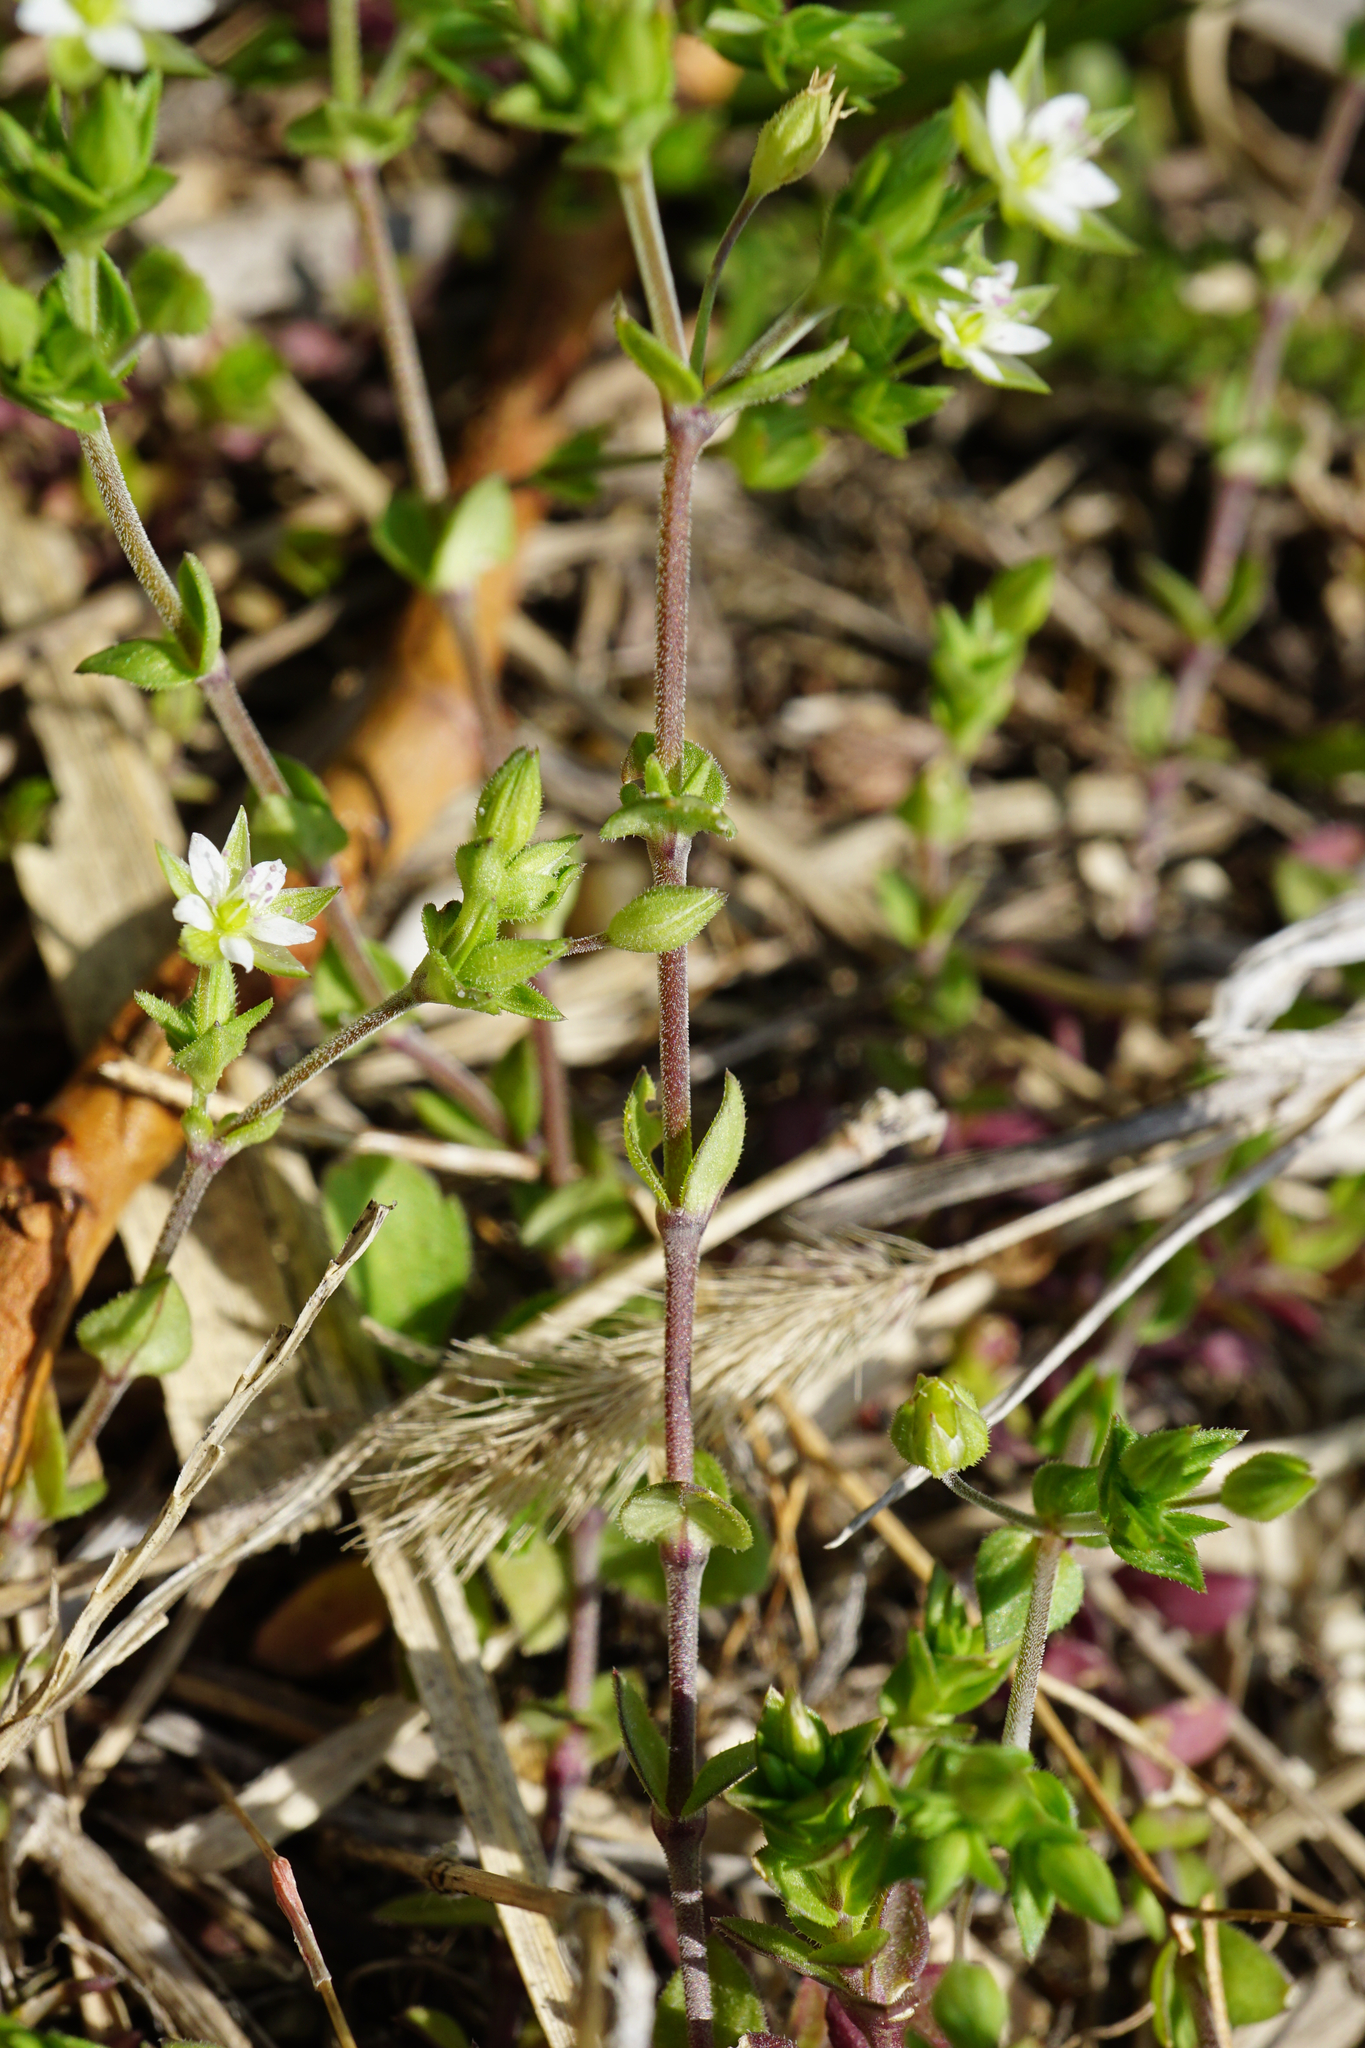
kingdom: Plantae
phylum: Tracheophyta
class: Magnoliopsida
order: Caryophyllales
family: Caryophyllaceae
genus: Arenaria
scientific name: Arenaria serpyllifolia
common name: Thyme-leaved sandwort
